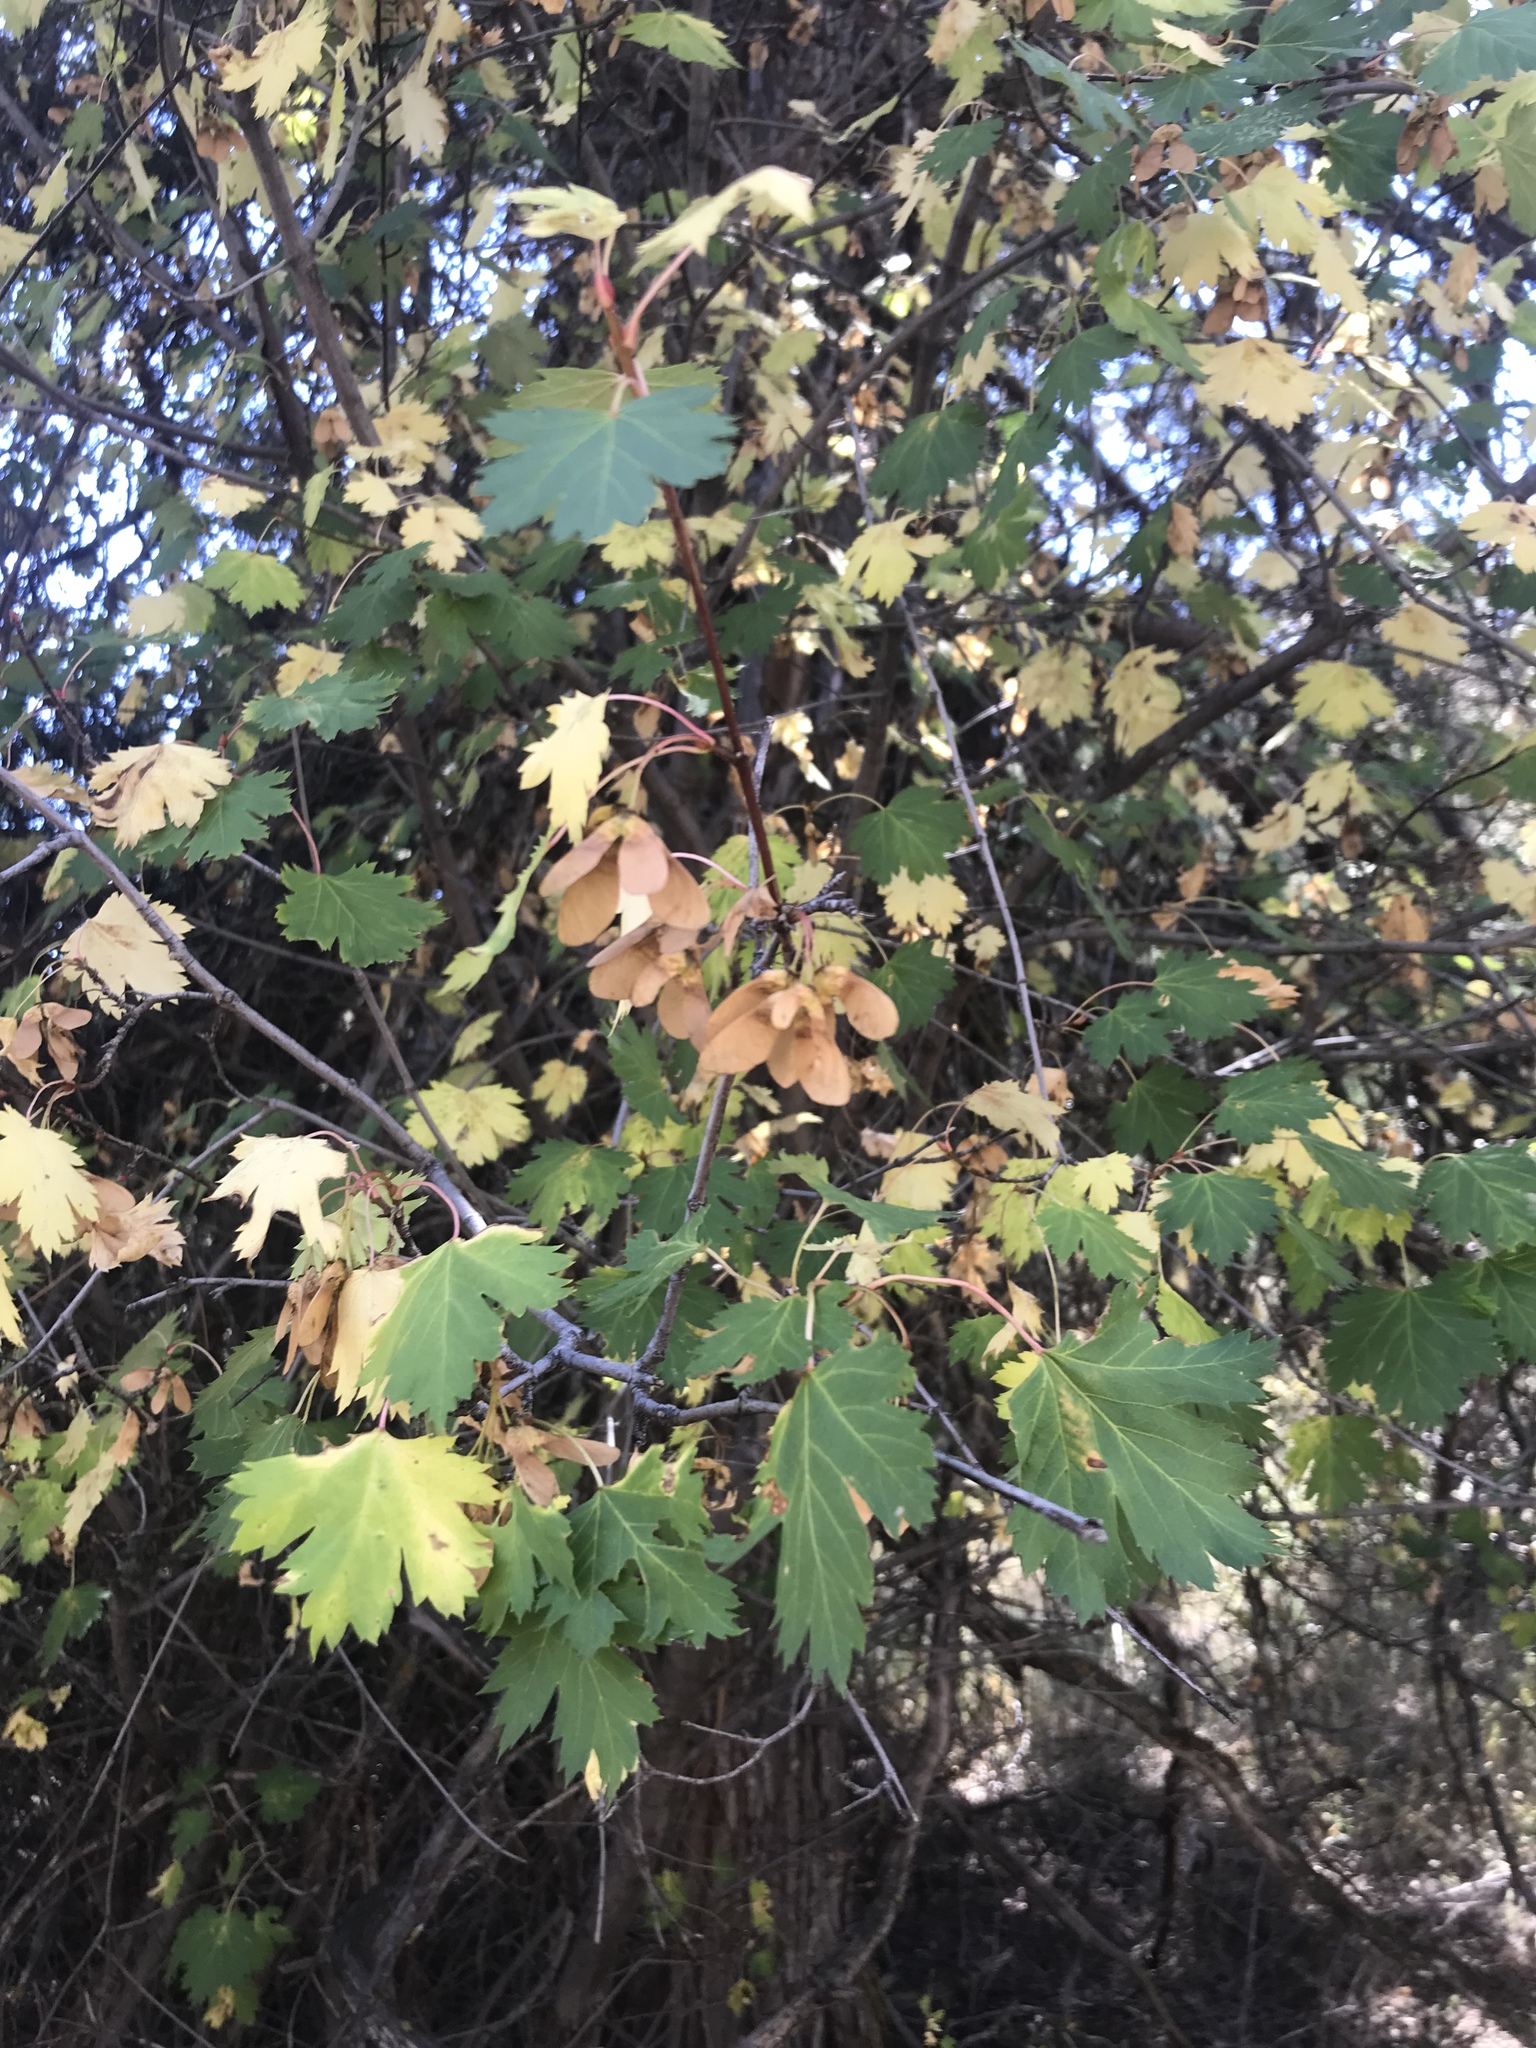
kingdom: Plantae
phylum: Tracheophyta
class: Magnoliopsida
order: Sapindales
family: Sapindaceae
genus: Acer
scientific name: Acer glabrum
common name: Rocky mountain maple
